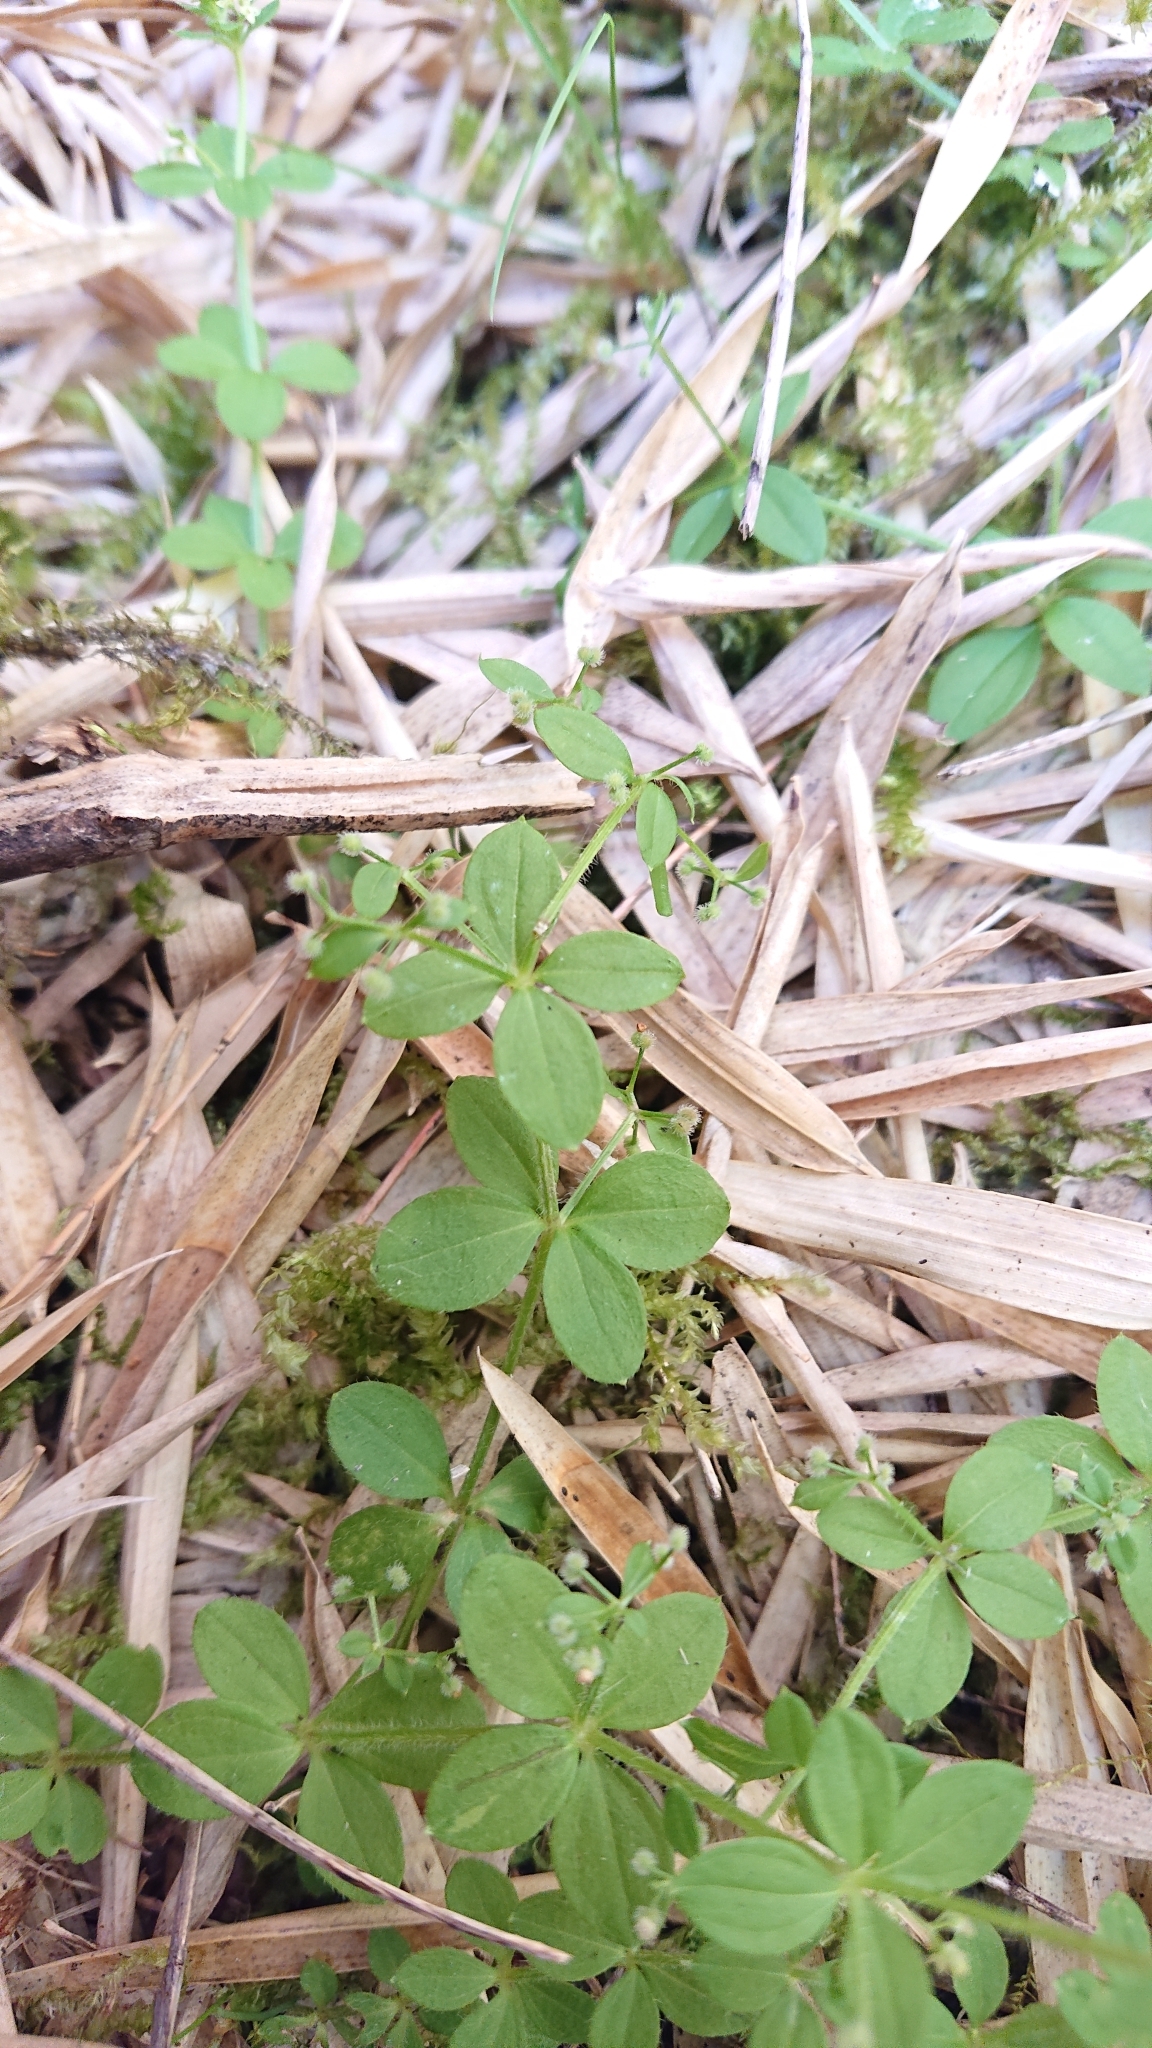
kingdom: Plantae
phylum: Tracheophyta
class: Magnoliopsida
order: Gentianales
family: Rubiaceae
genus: Galium
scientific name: Galium formosense
